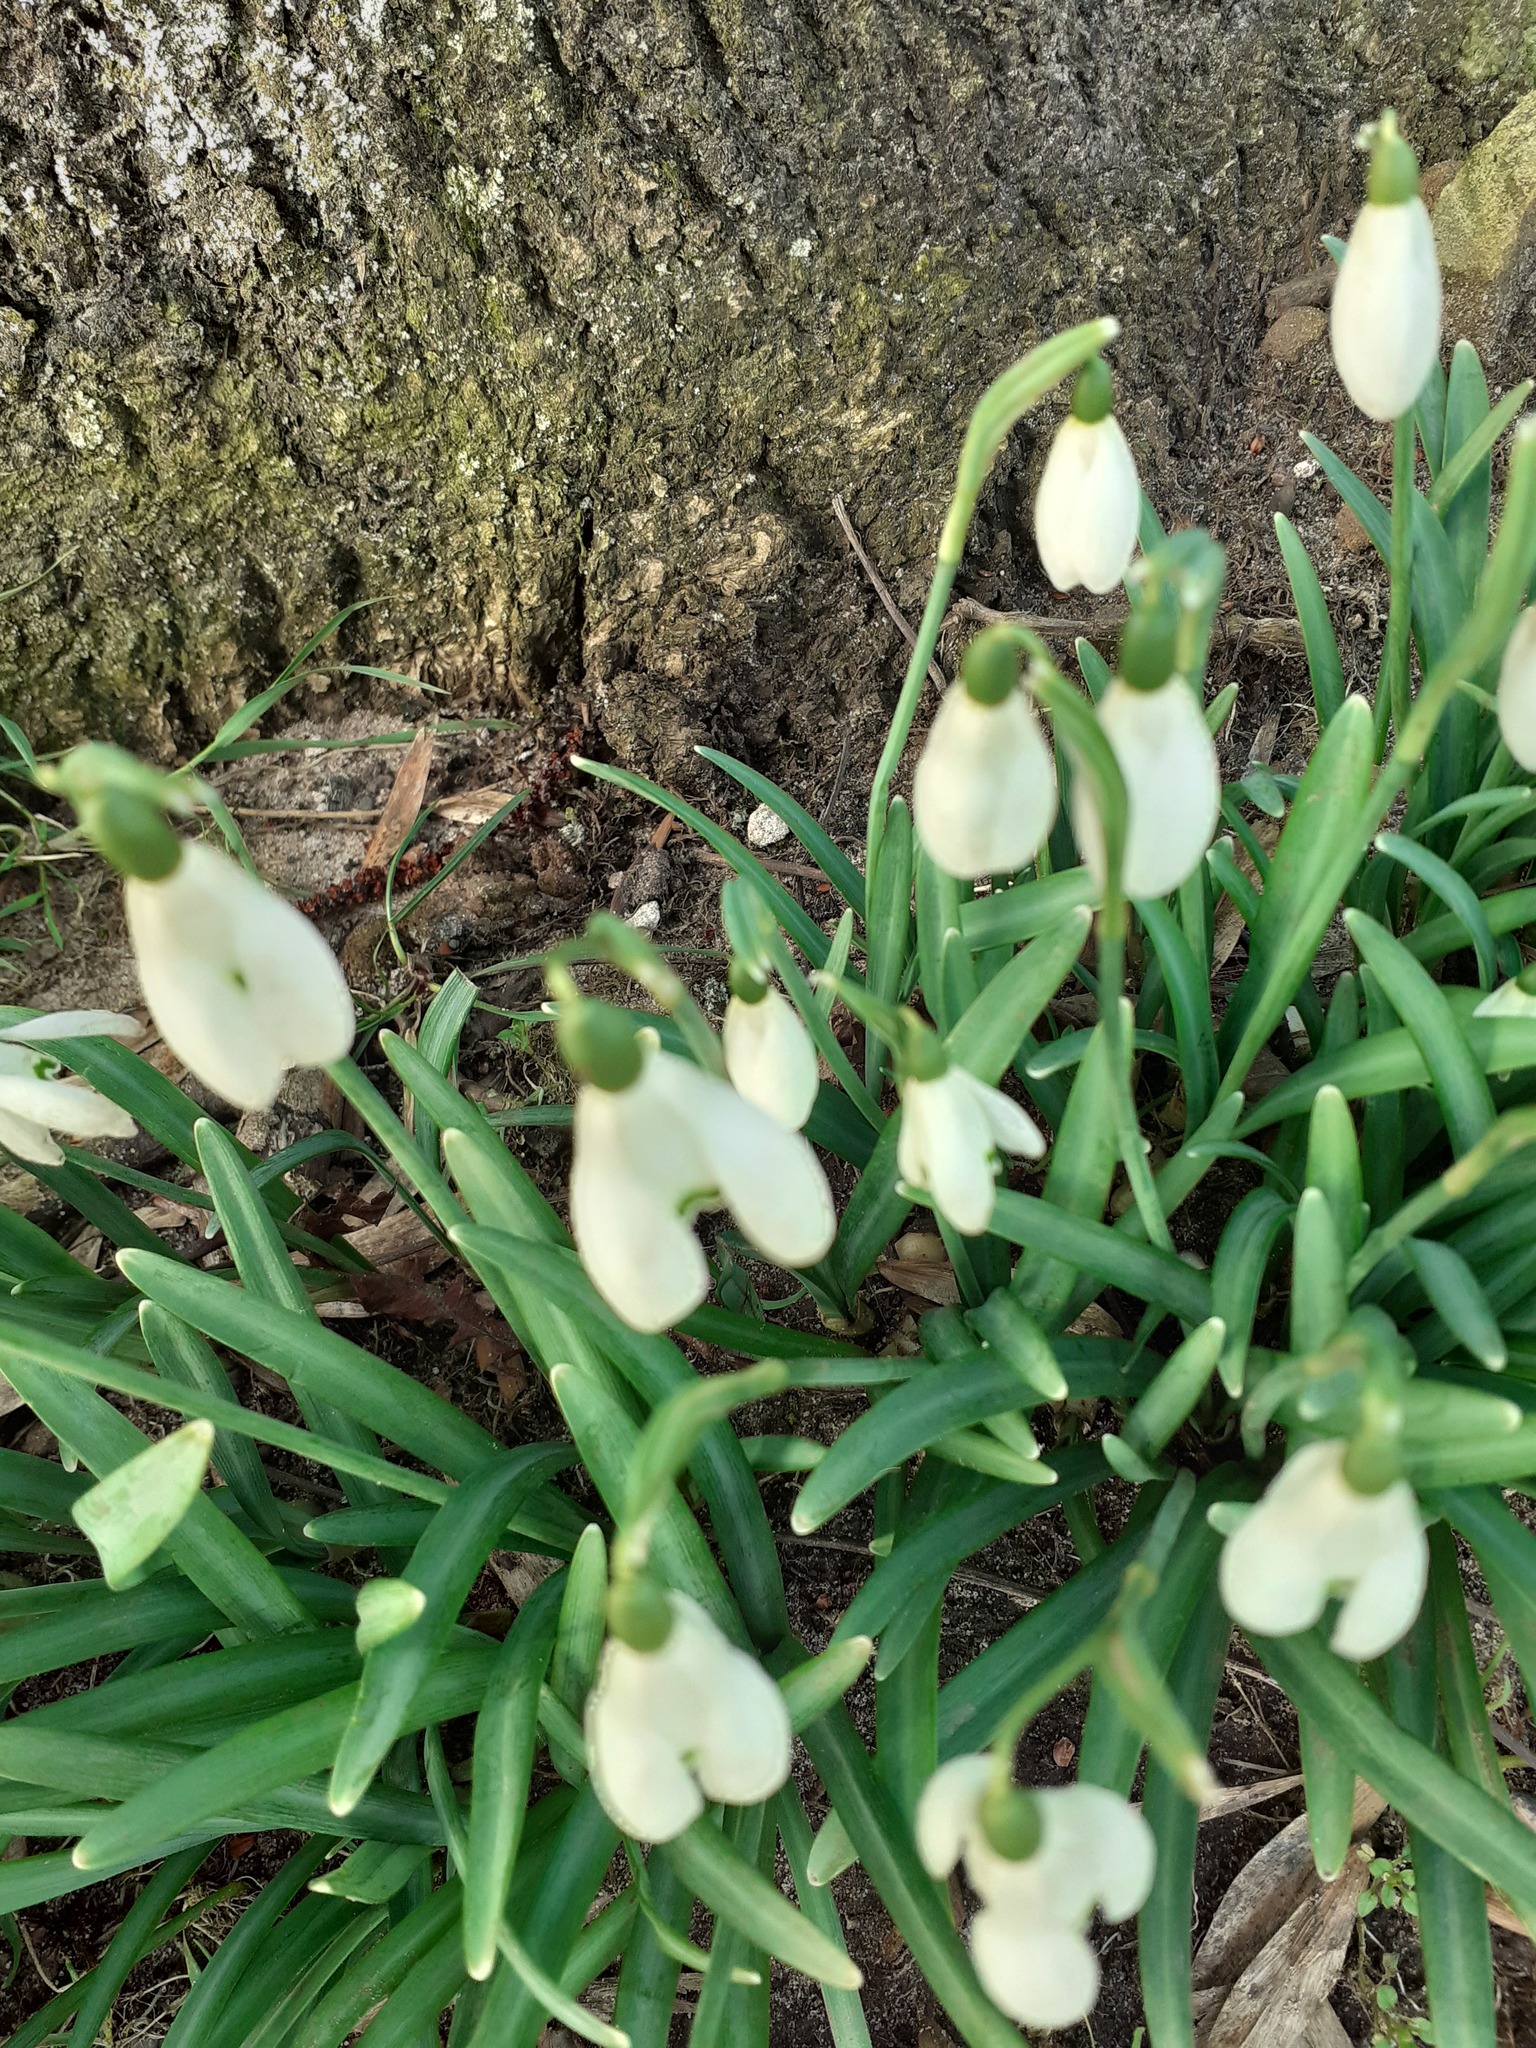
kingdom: Plantae
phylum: Tracheophyta
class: Liliopsida
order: Asparagales
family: Amaryllidaceae
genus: Galanthus
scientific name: Galanthus nivalis
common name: Snowdrop
